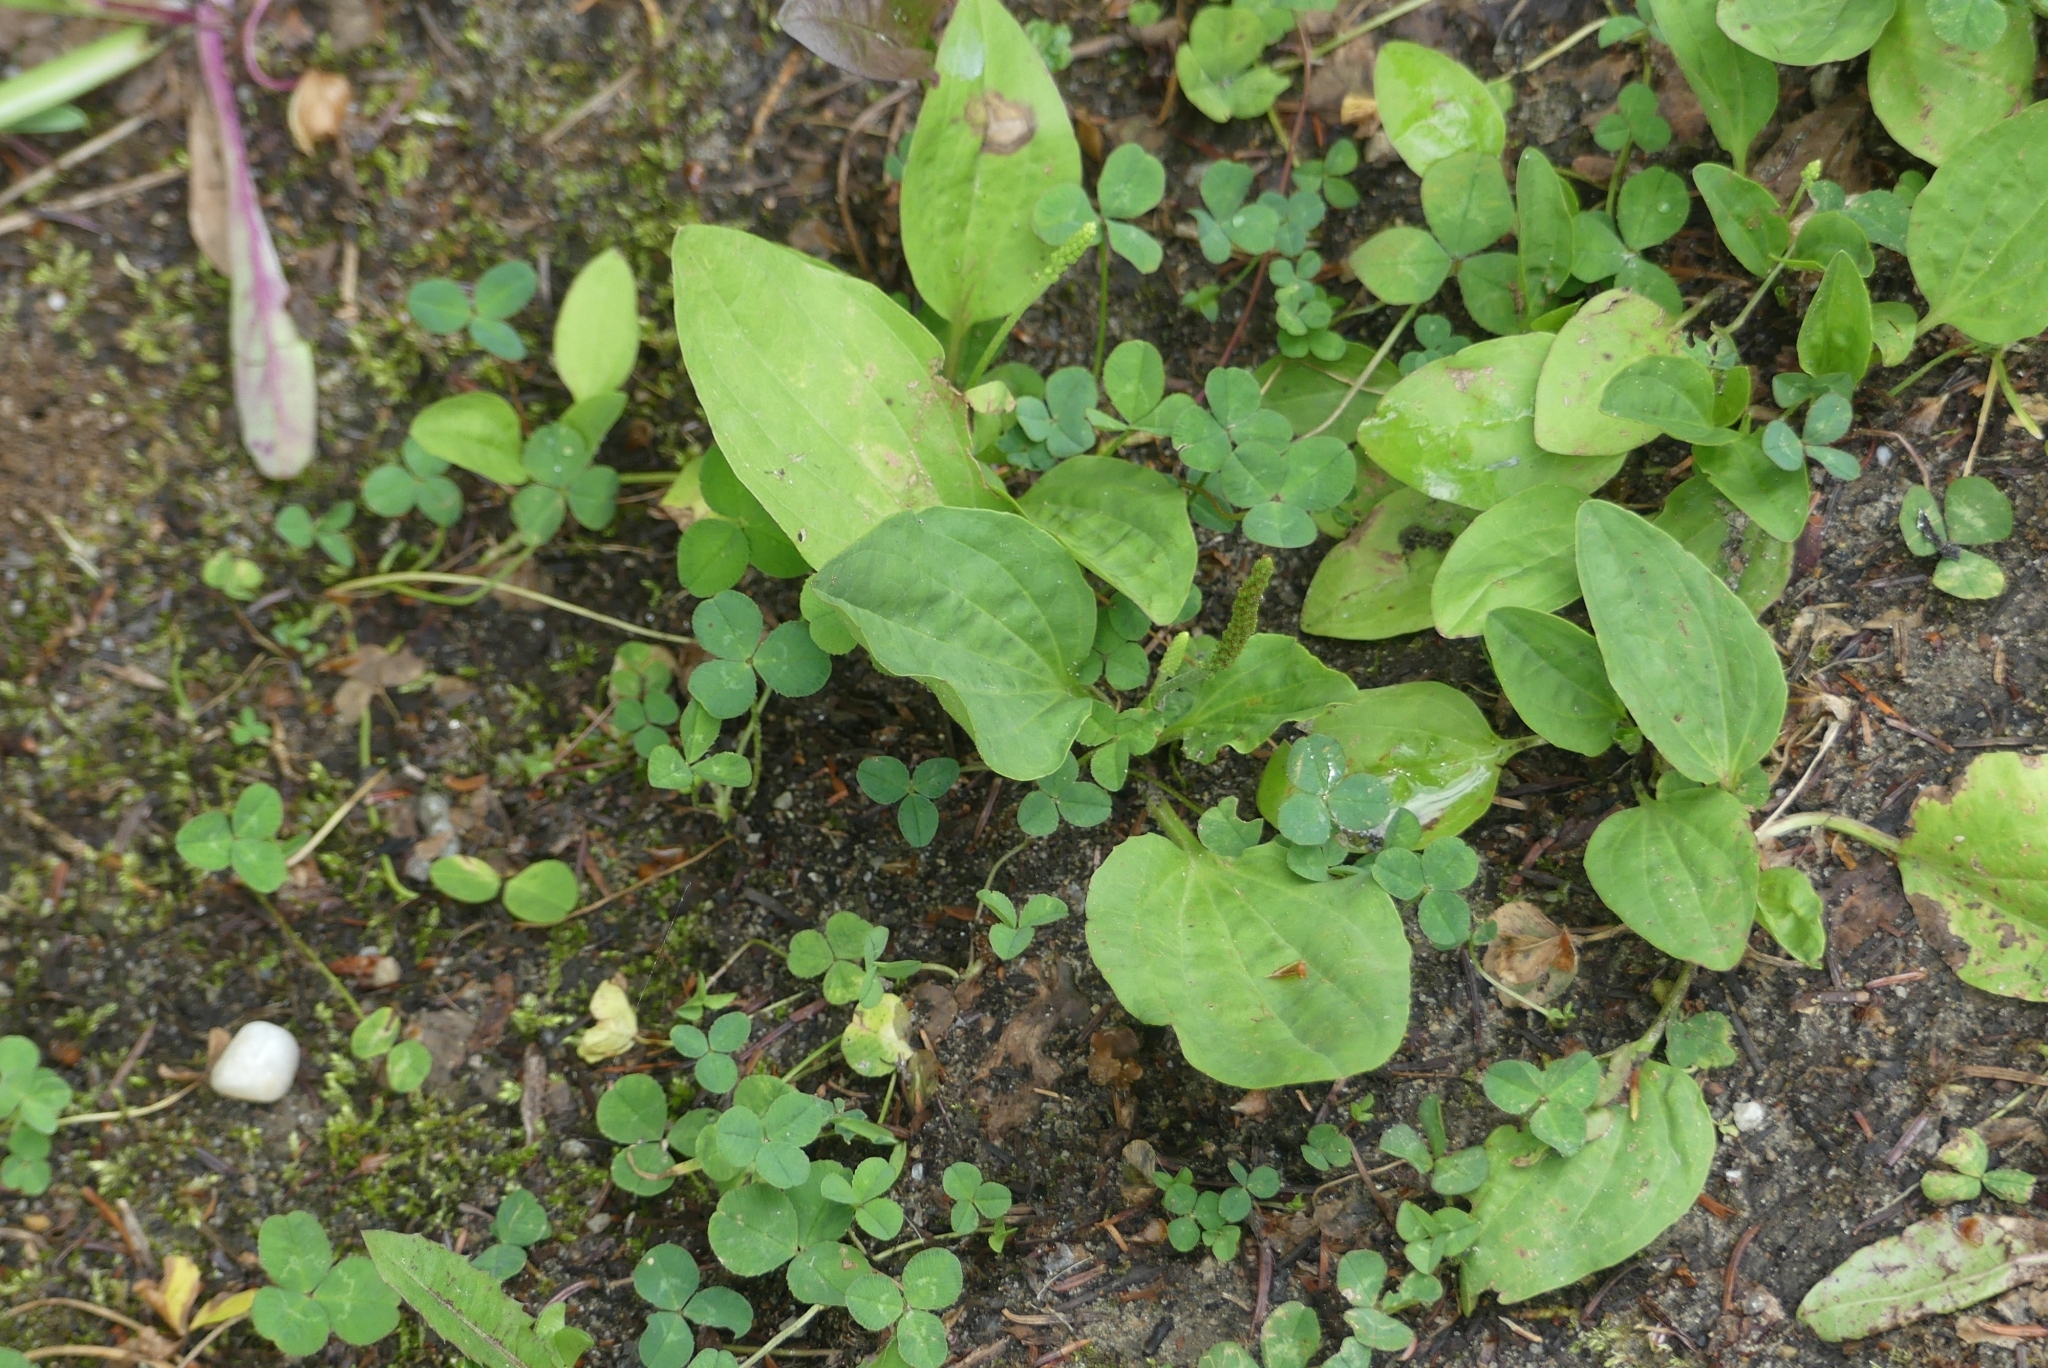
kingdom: Plantae
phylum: Tracheophyta
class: Magnoliopsida
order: Lamiales
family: Plantaginaceae
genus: Plantago
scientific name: Plantago major
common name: Common plantain
